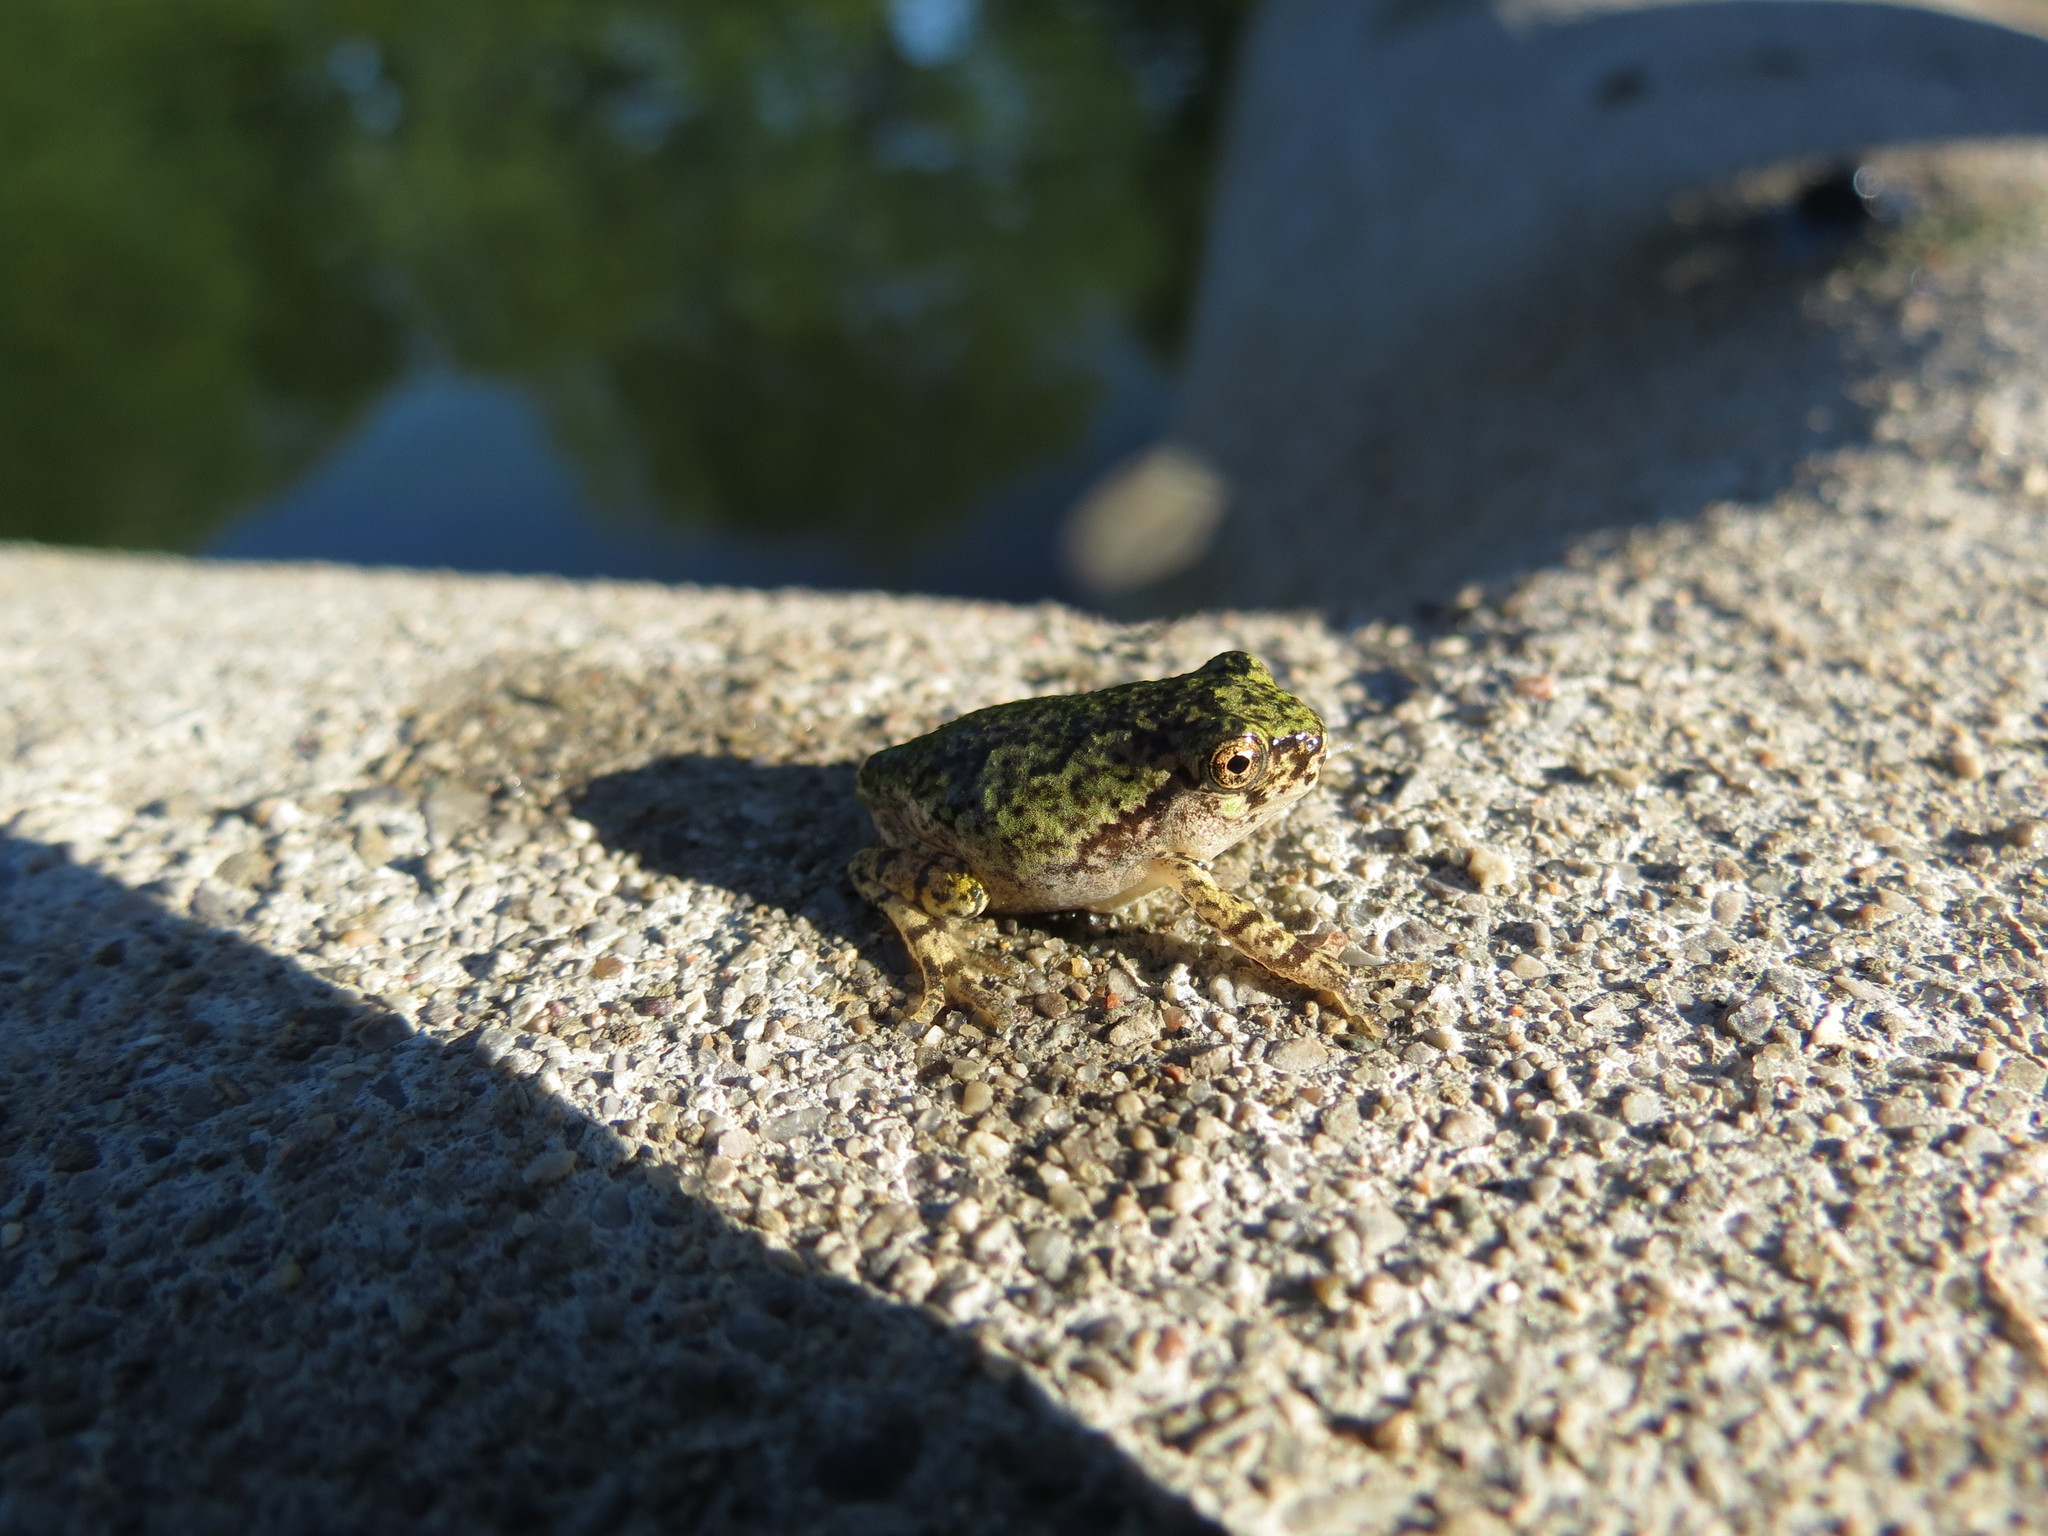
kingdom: Animalia
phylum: Chordata
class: Amphibia
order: Anura
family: Hylidae
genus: Dryophytes
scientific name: Dryophytes versicolor
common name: Gray treefrog
